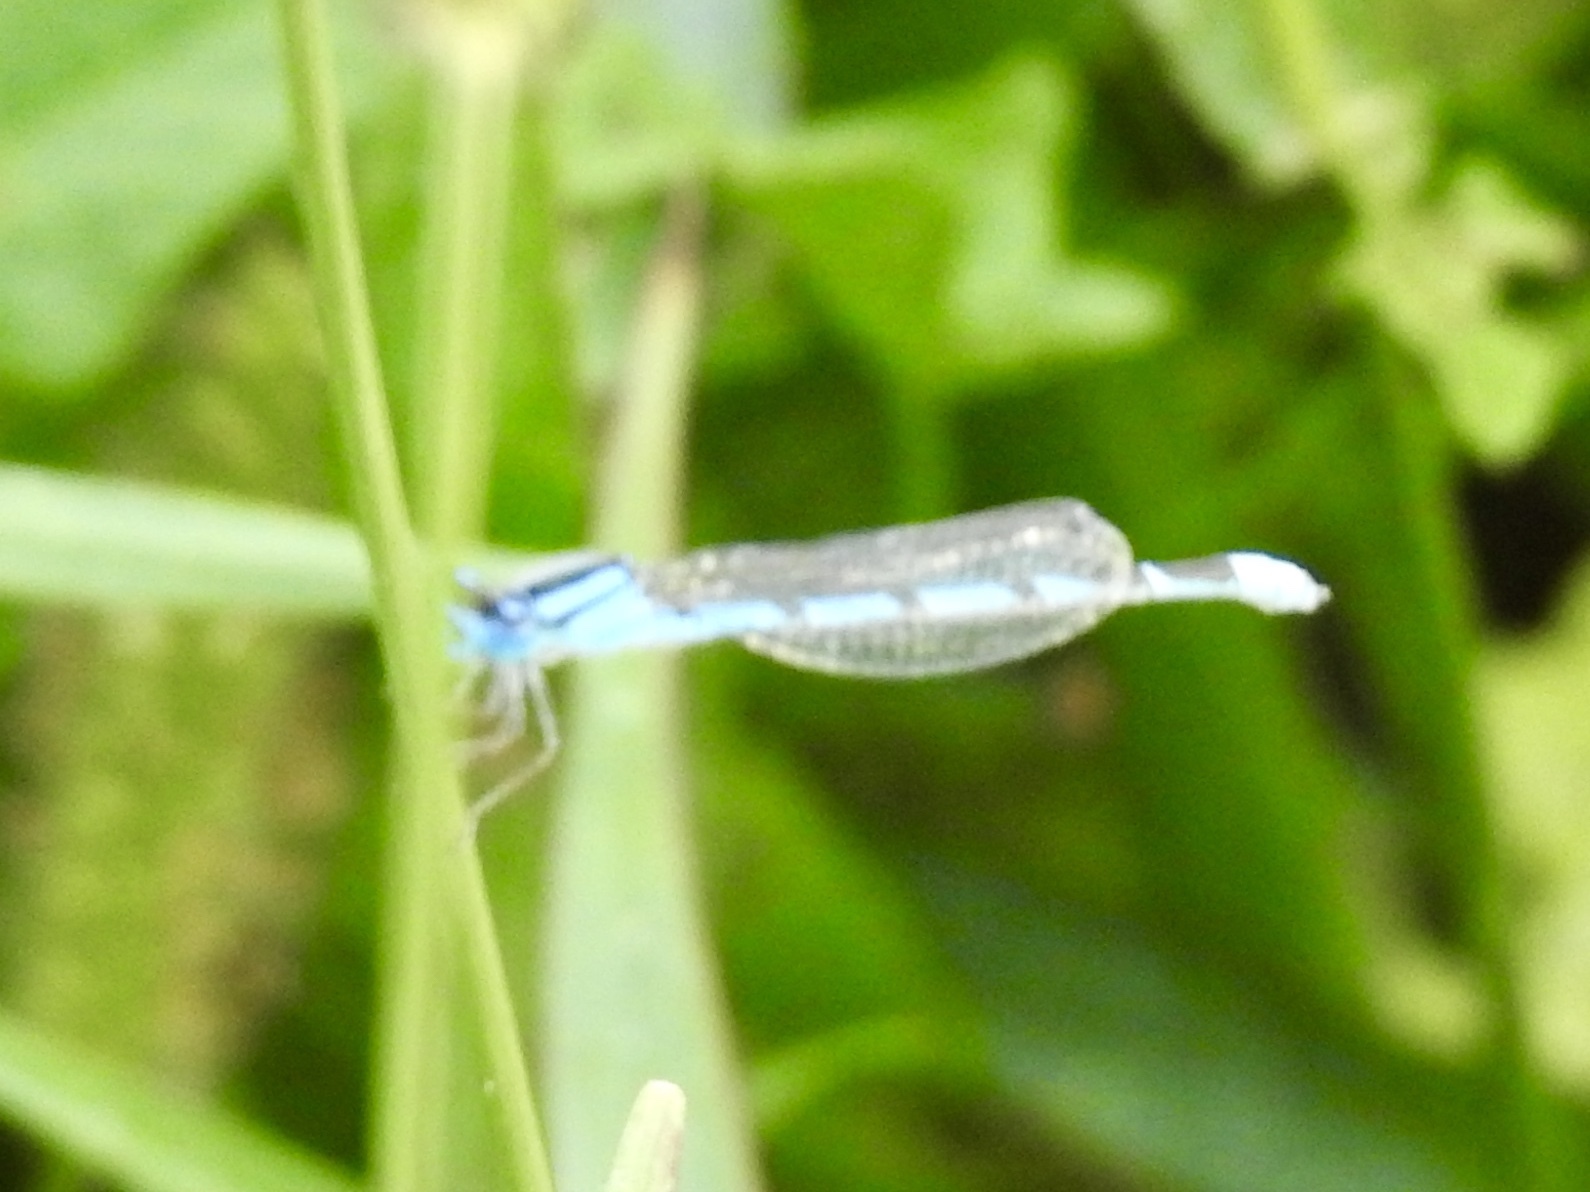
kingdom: Animalia
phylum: Arthropoda
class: Insecta
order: Odonata
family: Coenagrionidae
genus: Enallagma
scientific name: Enallagma civile
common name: Damselfly
